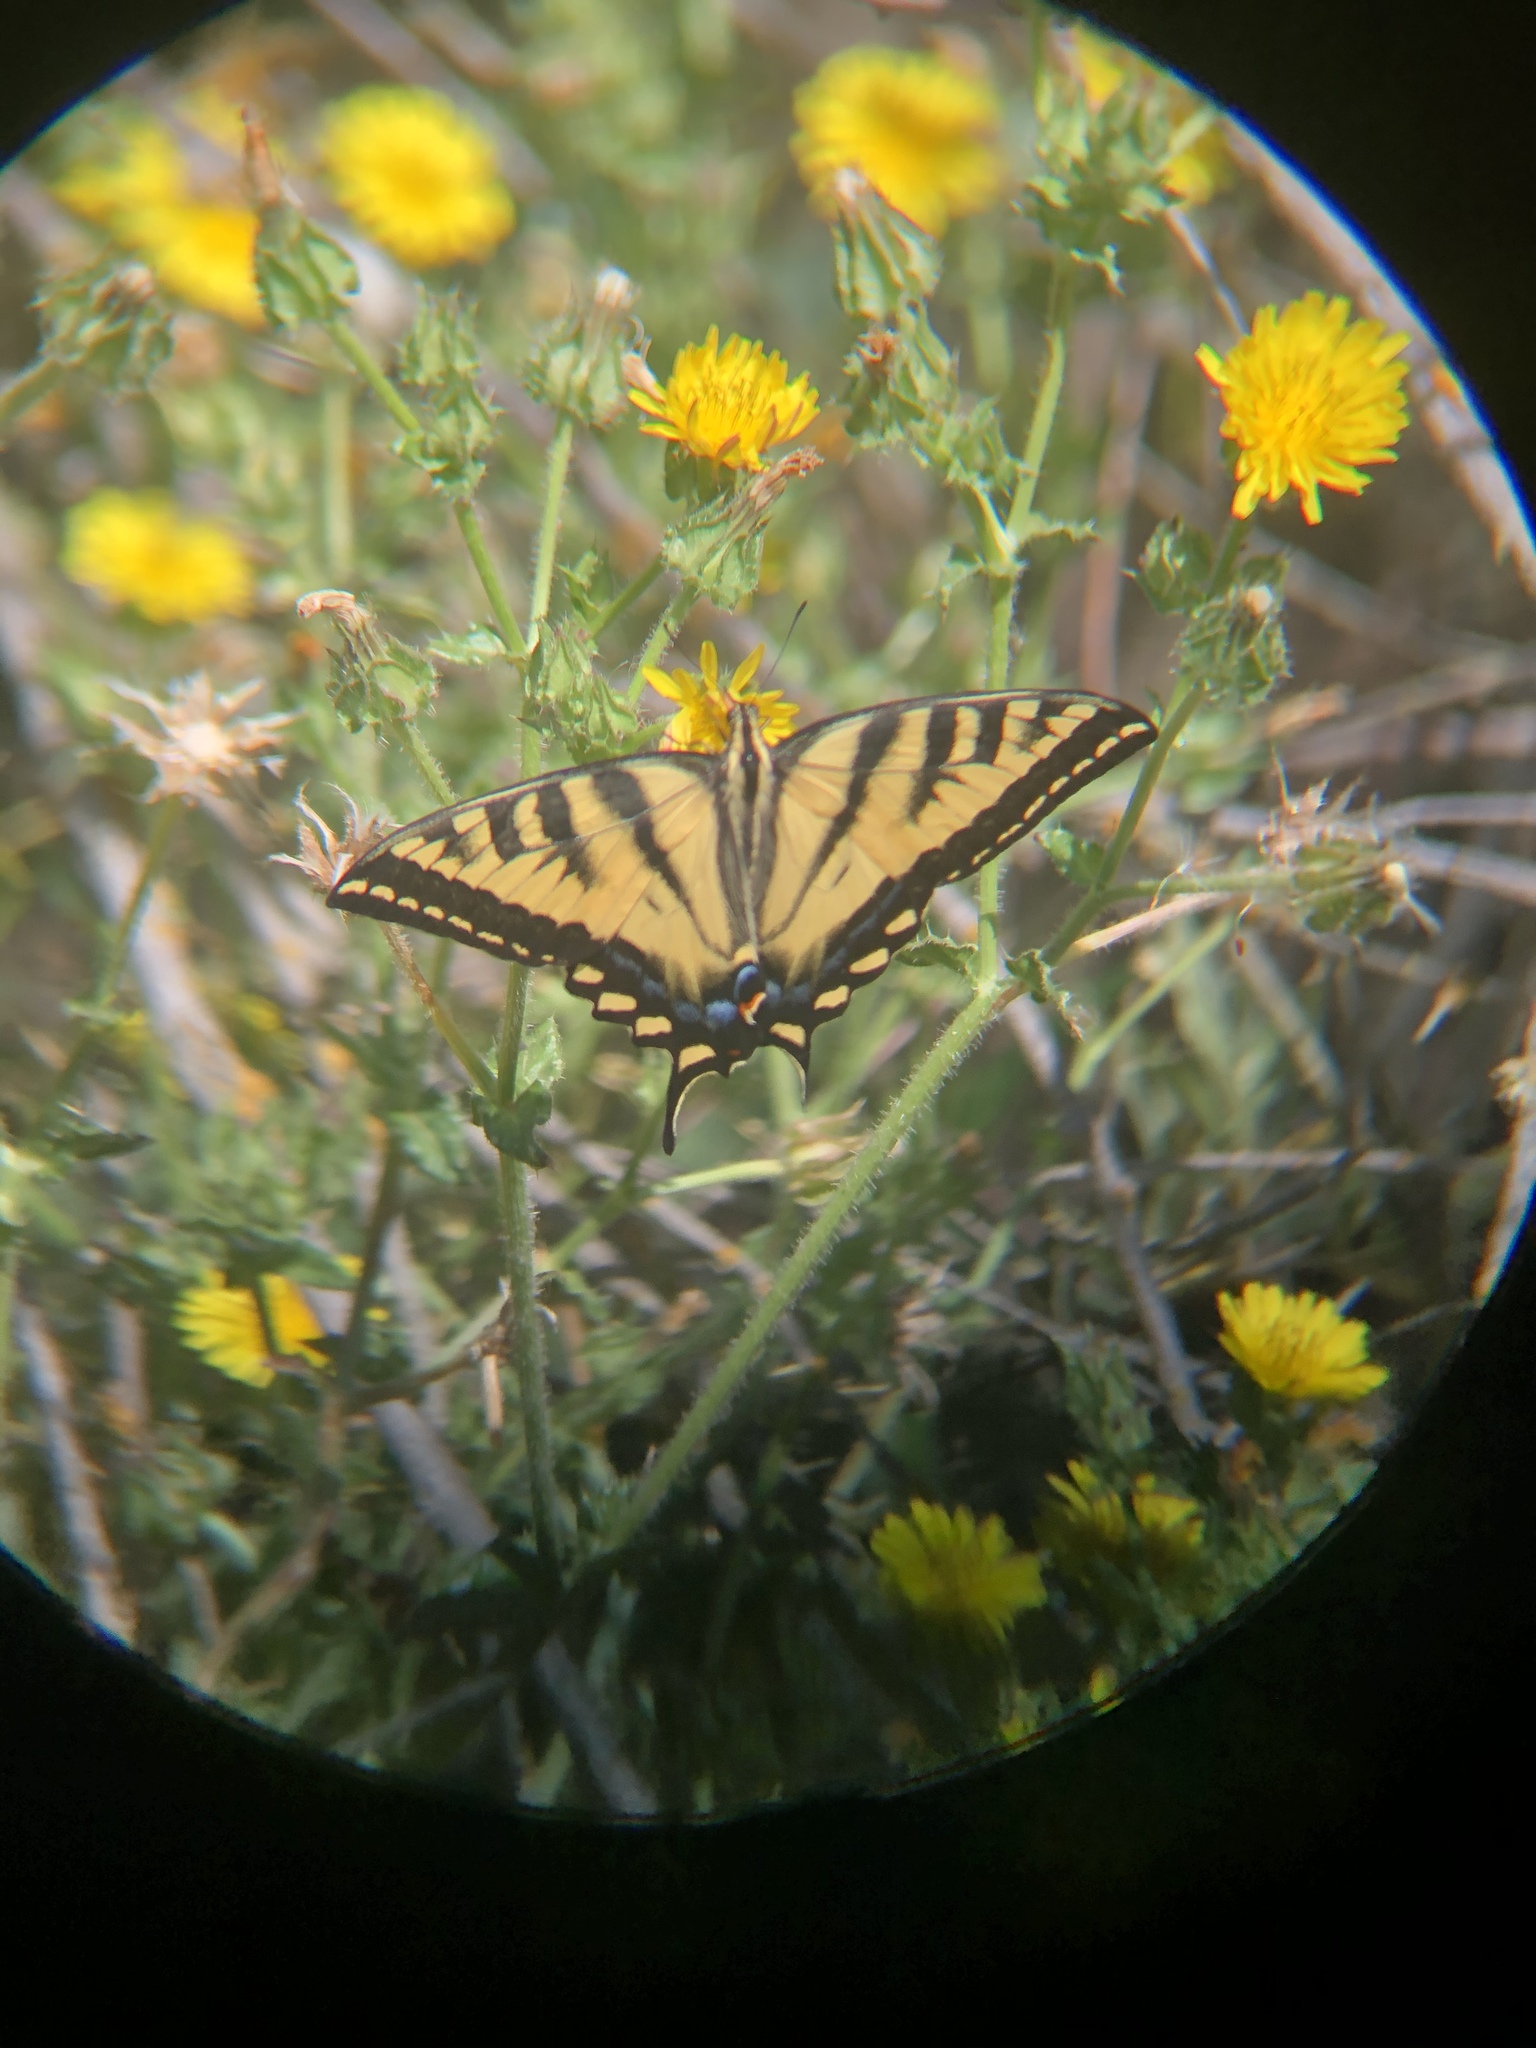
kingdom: Animalia
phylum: Arthropoda
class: Insecta
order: Lepidoptera
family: Papilionidae
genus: Papilio
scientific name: Papilio rutulus
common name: Western tiger swallowtail
